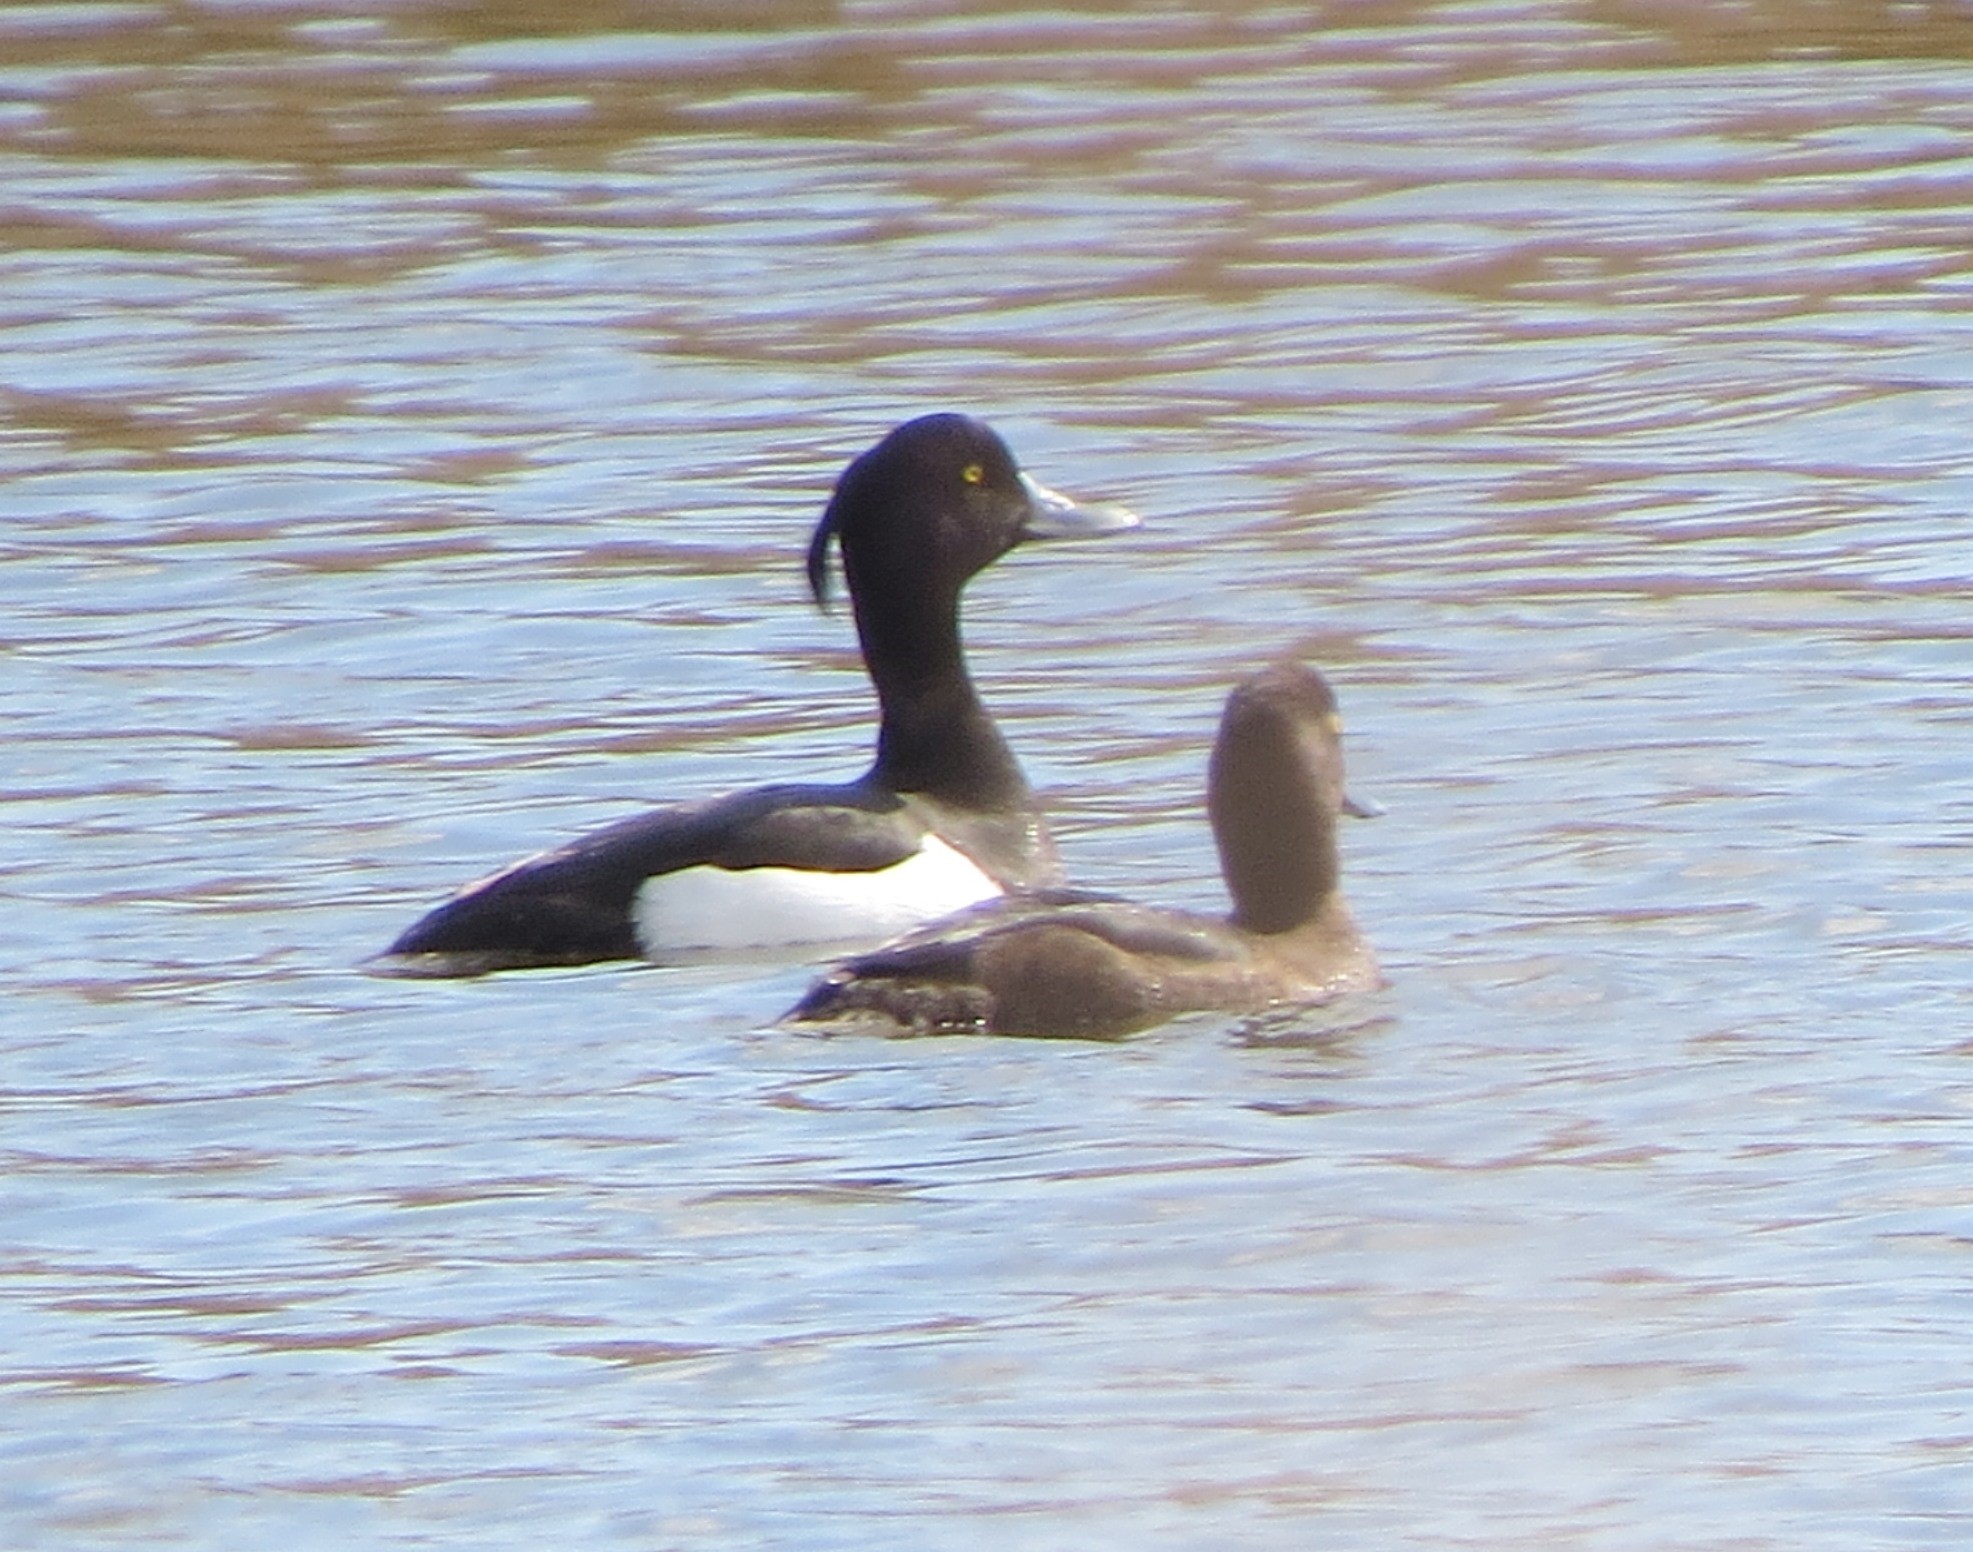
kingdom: Animalia
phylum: Chordata
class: Aves
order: Anseriformes
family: Anatidae
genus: Aythya
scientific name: Aythya fuligula
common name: Tufted duck
